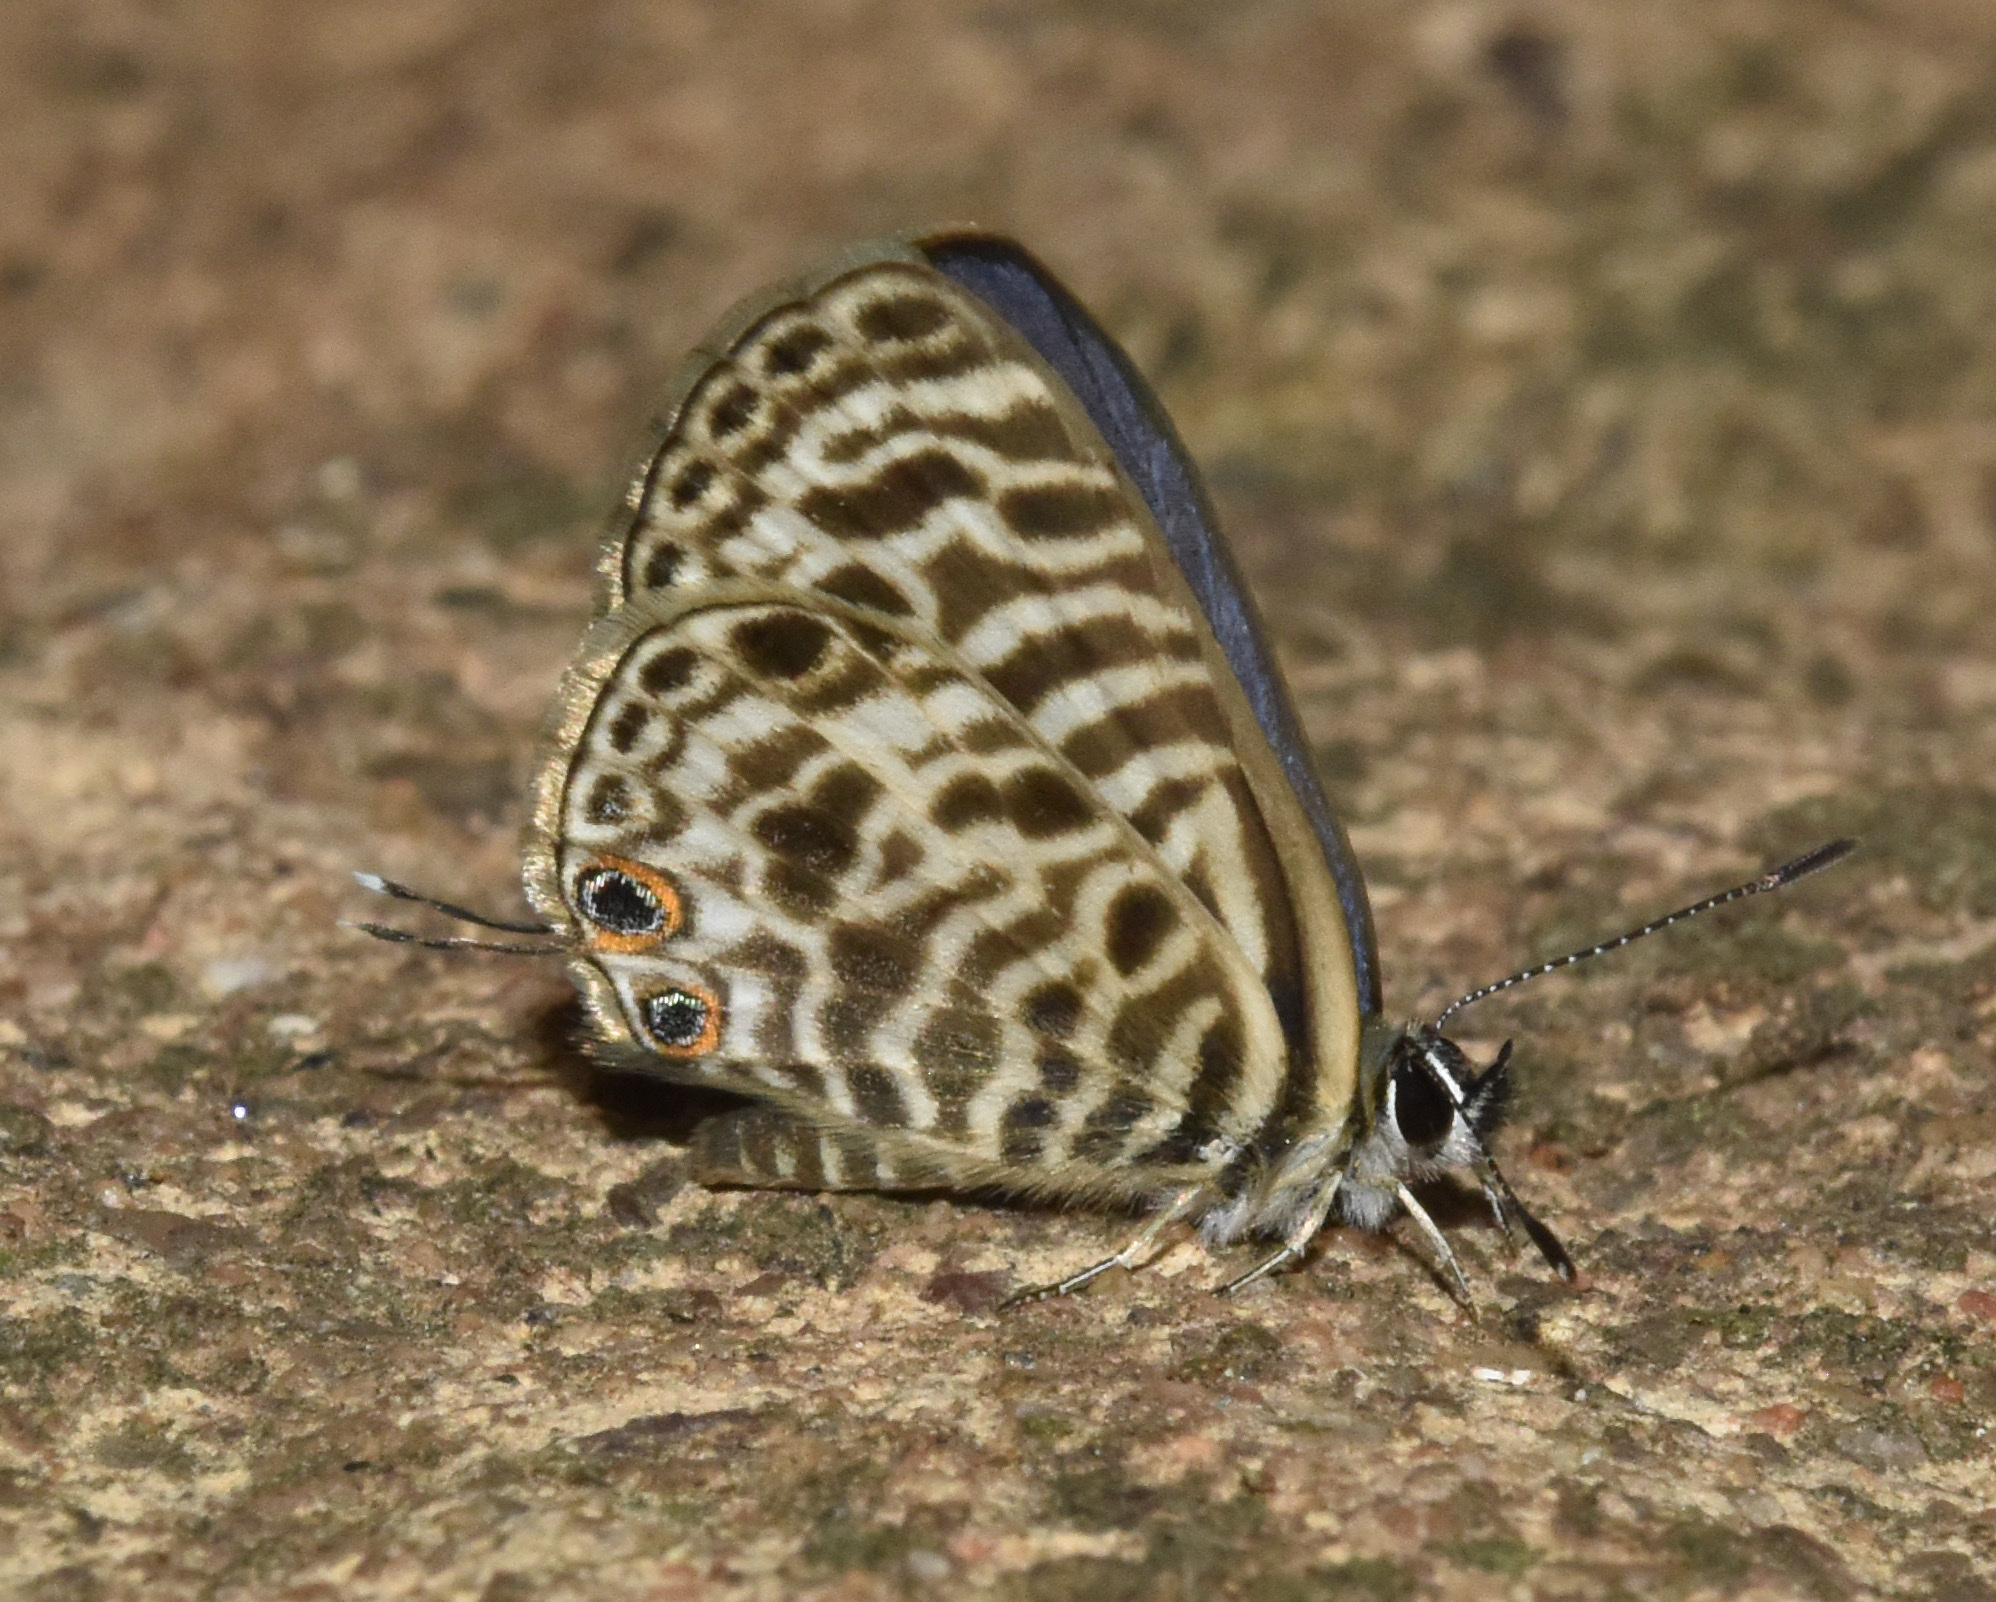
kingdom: Animalia
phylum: Arthropoda
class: Insecta
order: Lepidoptera
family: Lycaenidae
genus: Leptotes
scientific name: Leptotes
